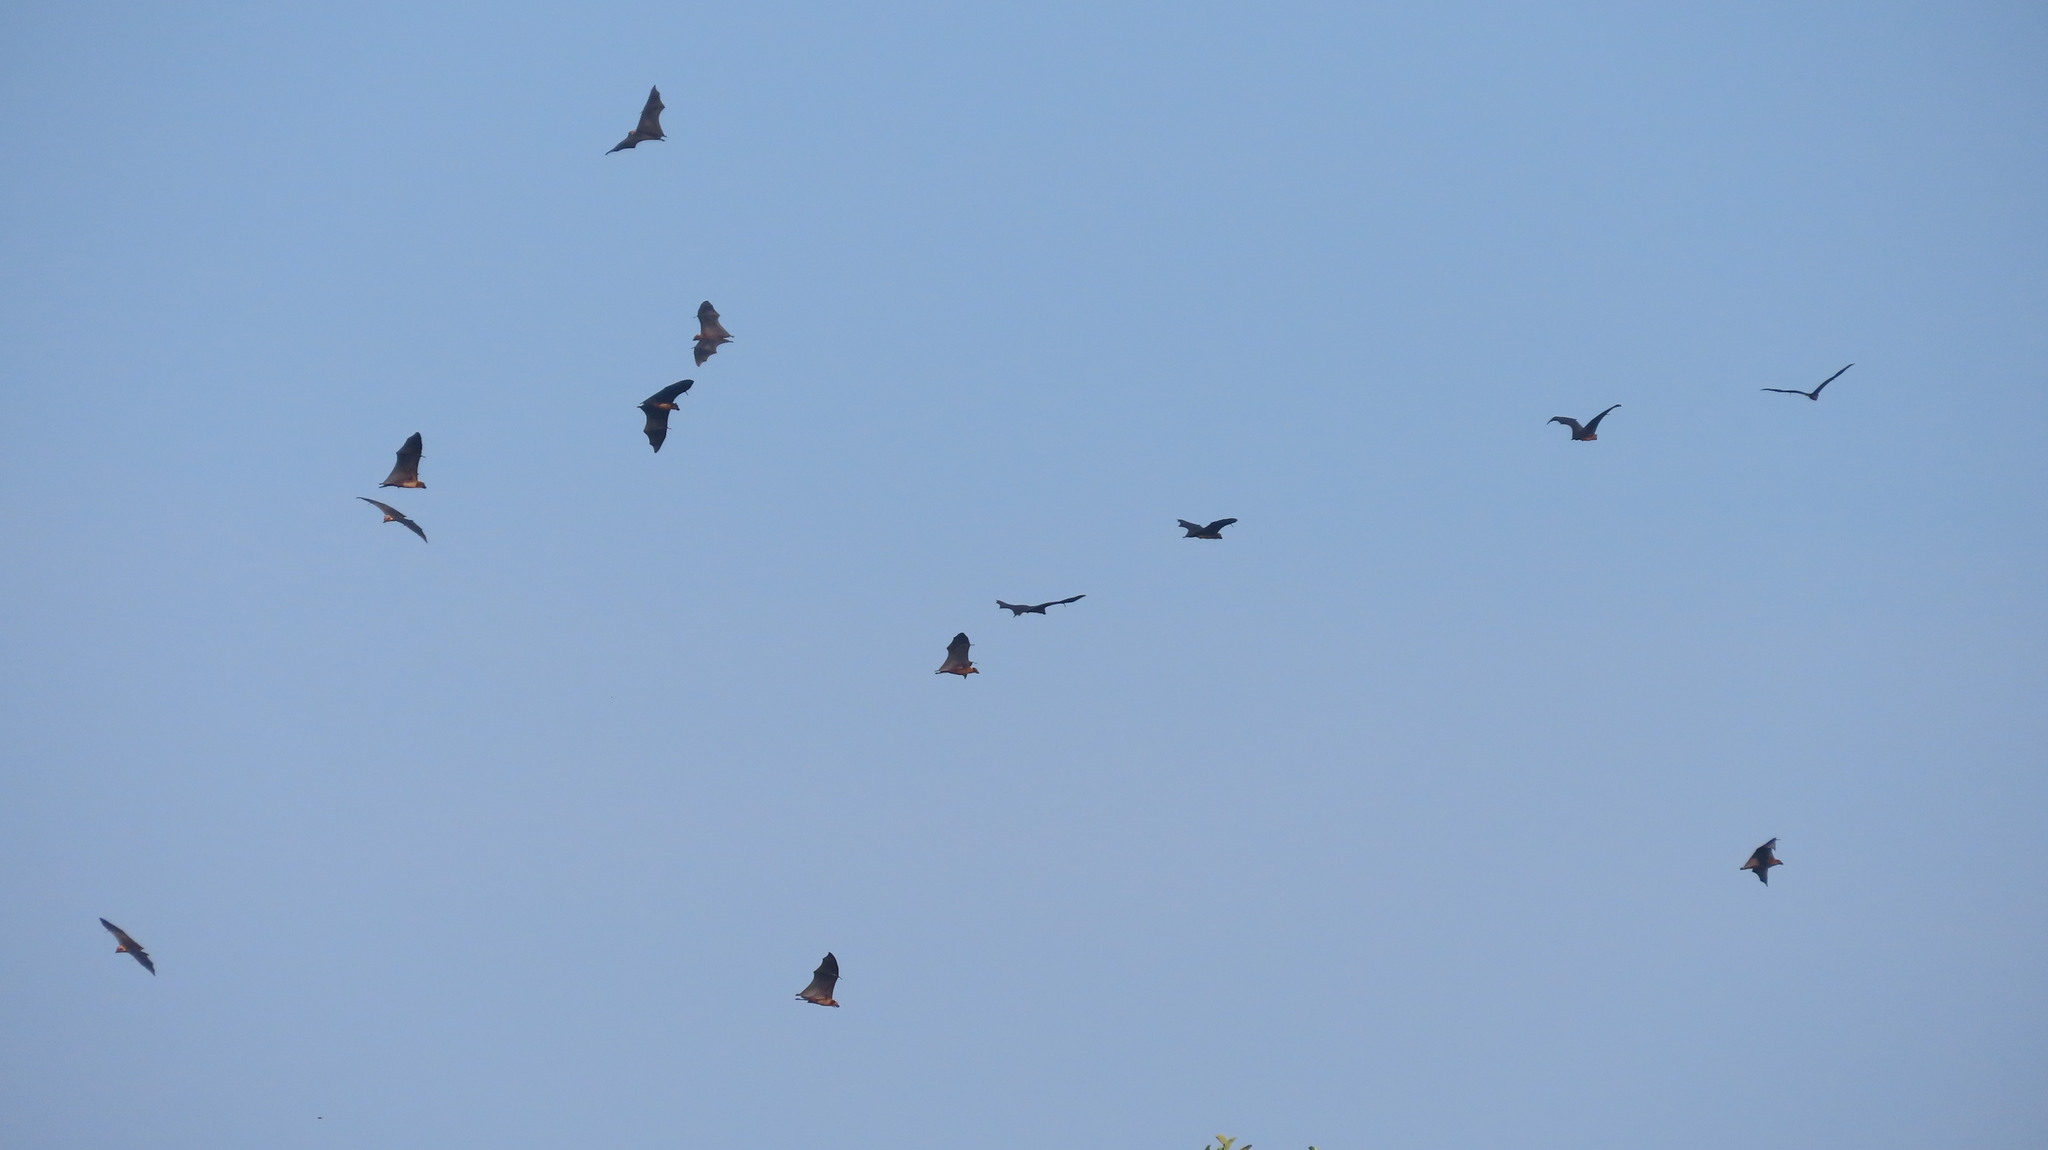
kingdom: Animalia
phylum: Chordata
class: Mammalia
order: Chiroptera
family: Pteropodidae
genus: Pteropus
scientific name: Pteropus vampyrus
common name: Large flying fox
